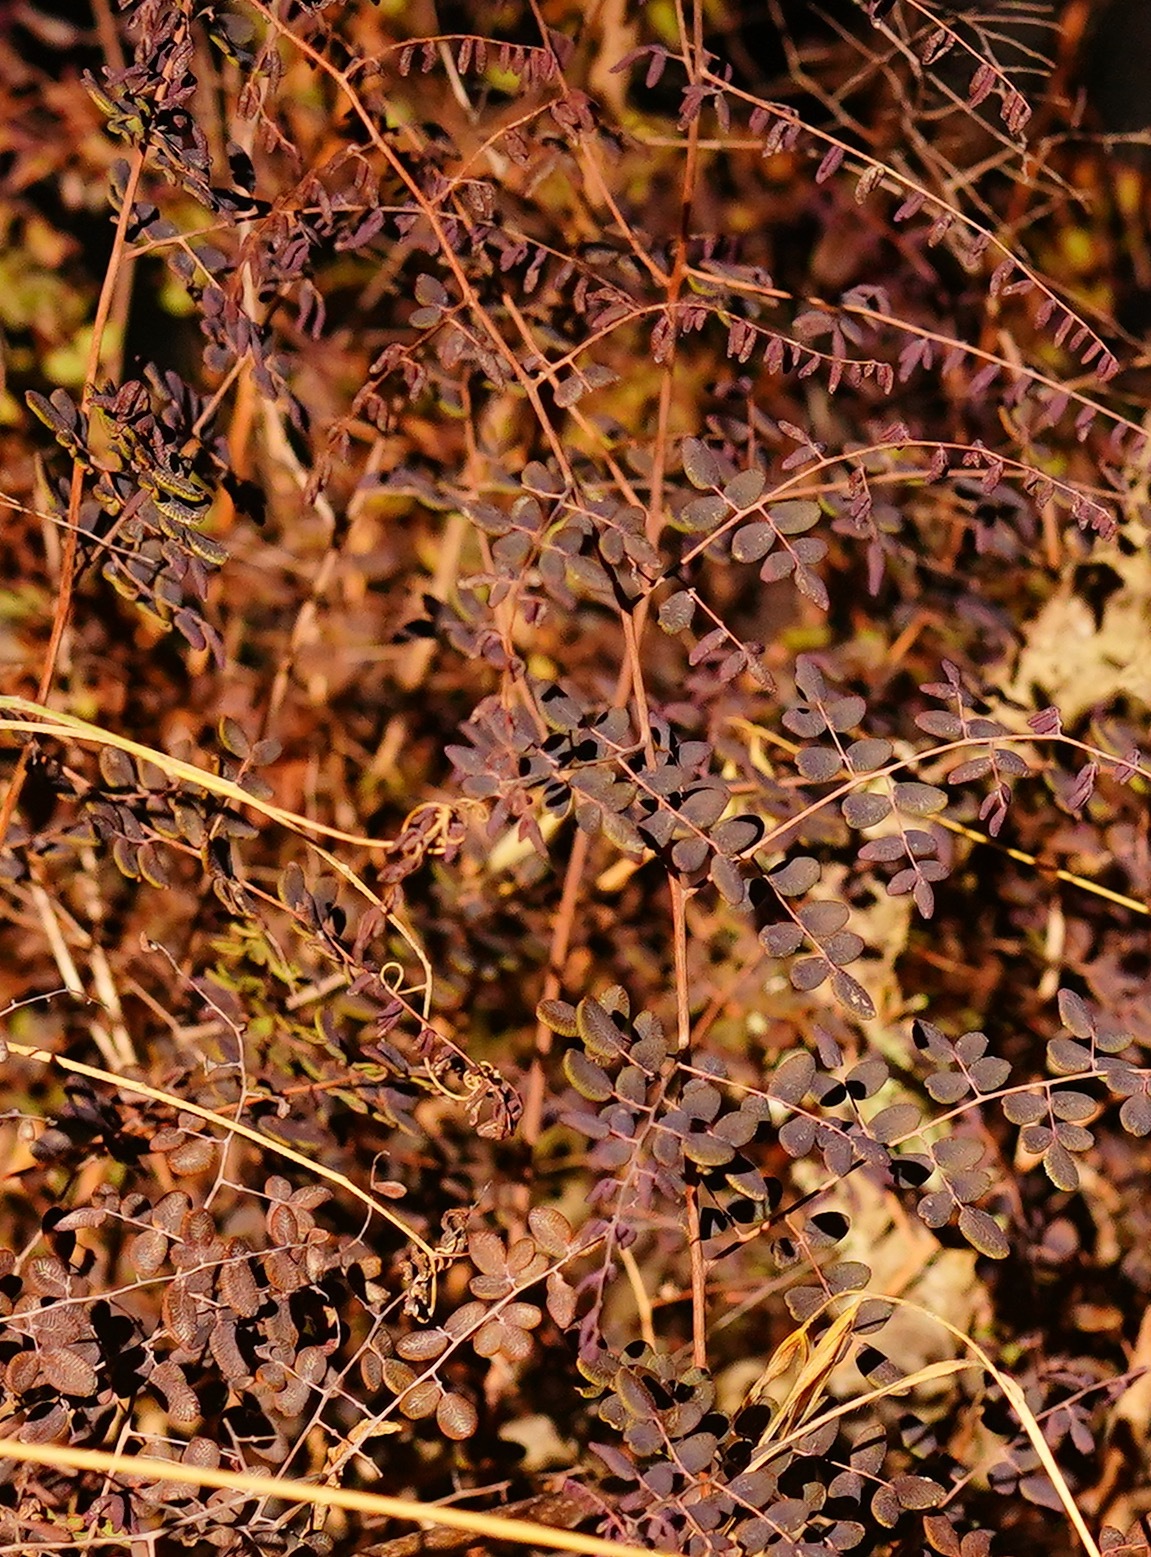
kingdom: Plantae
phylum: Tracheophyta
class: Polypodiopsida
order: Polypodiales
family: Pteridaceae
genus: Pellaea
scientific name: Pellaea andromedifolia
